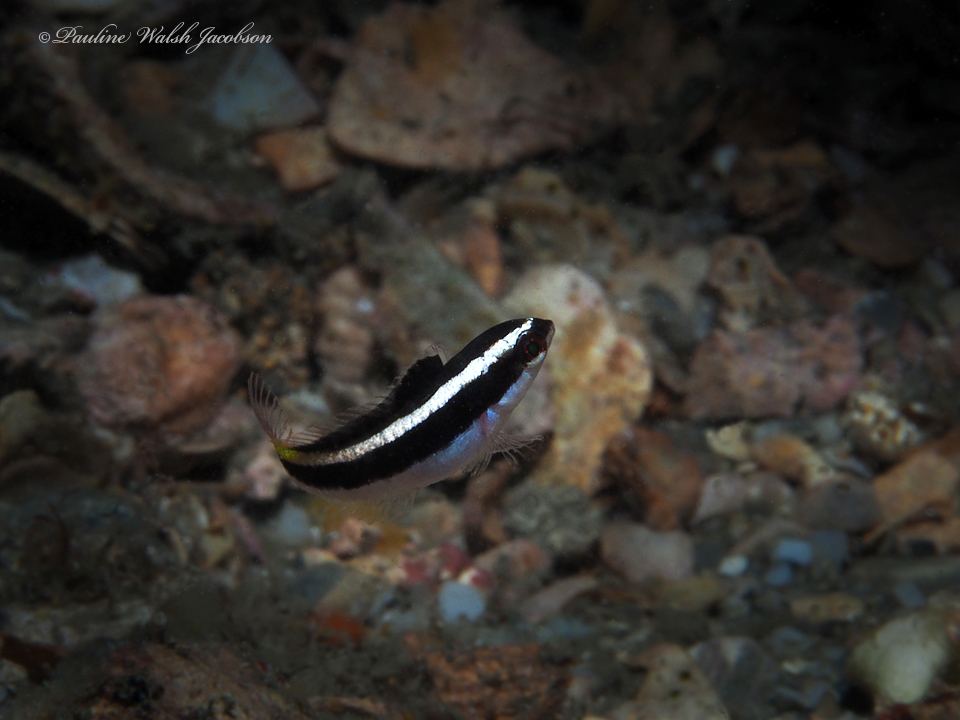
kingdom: Animalia
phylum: Chordata
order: Perciformes
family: Labridae
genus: Thalassoma
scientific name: Thalassoma bifasciatum
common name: Bluehead wrasse
